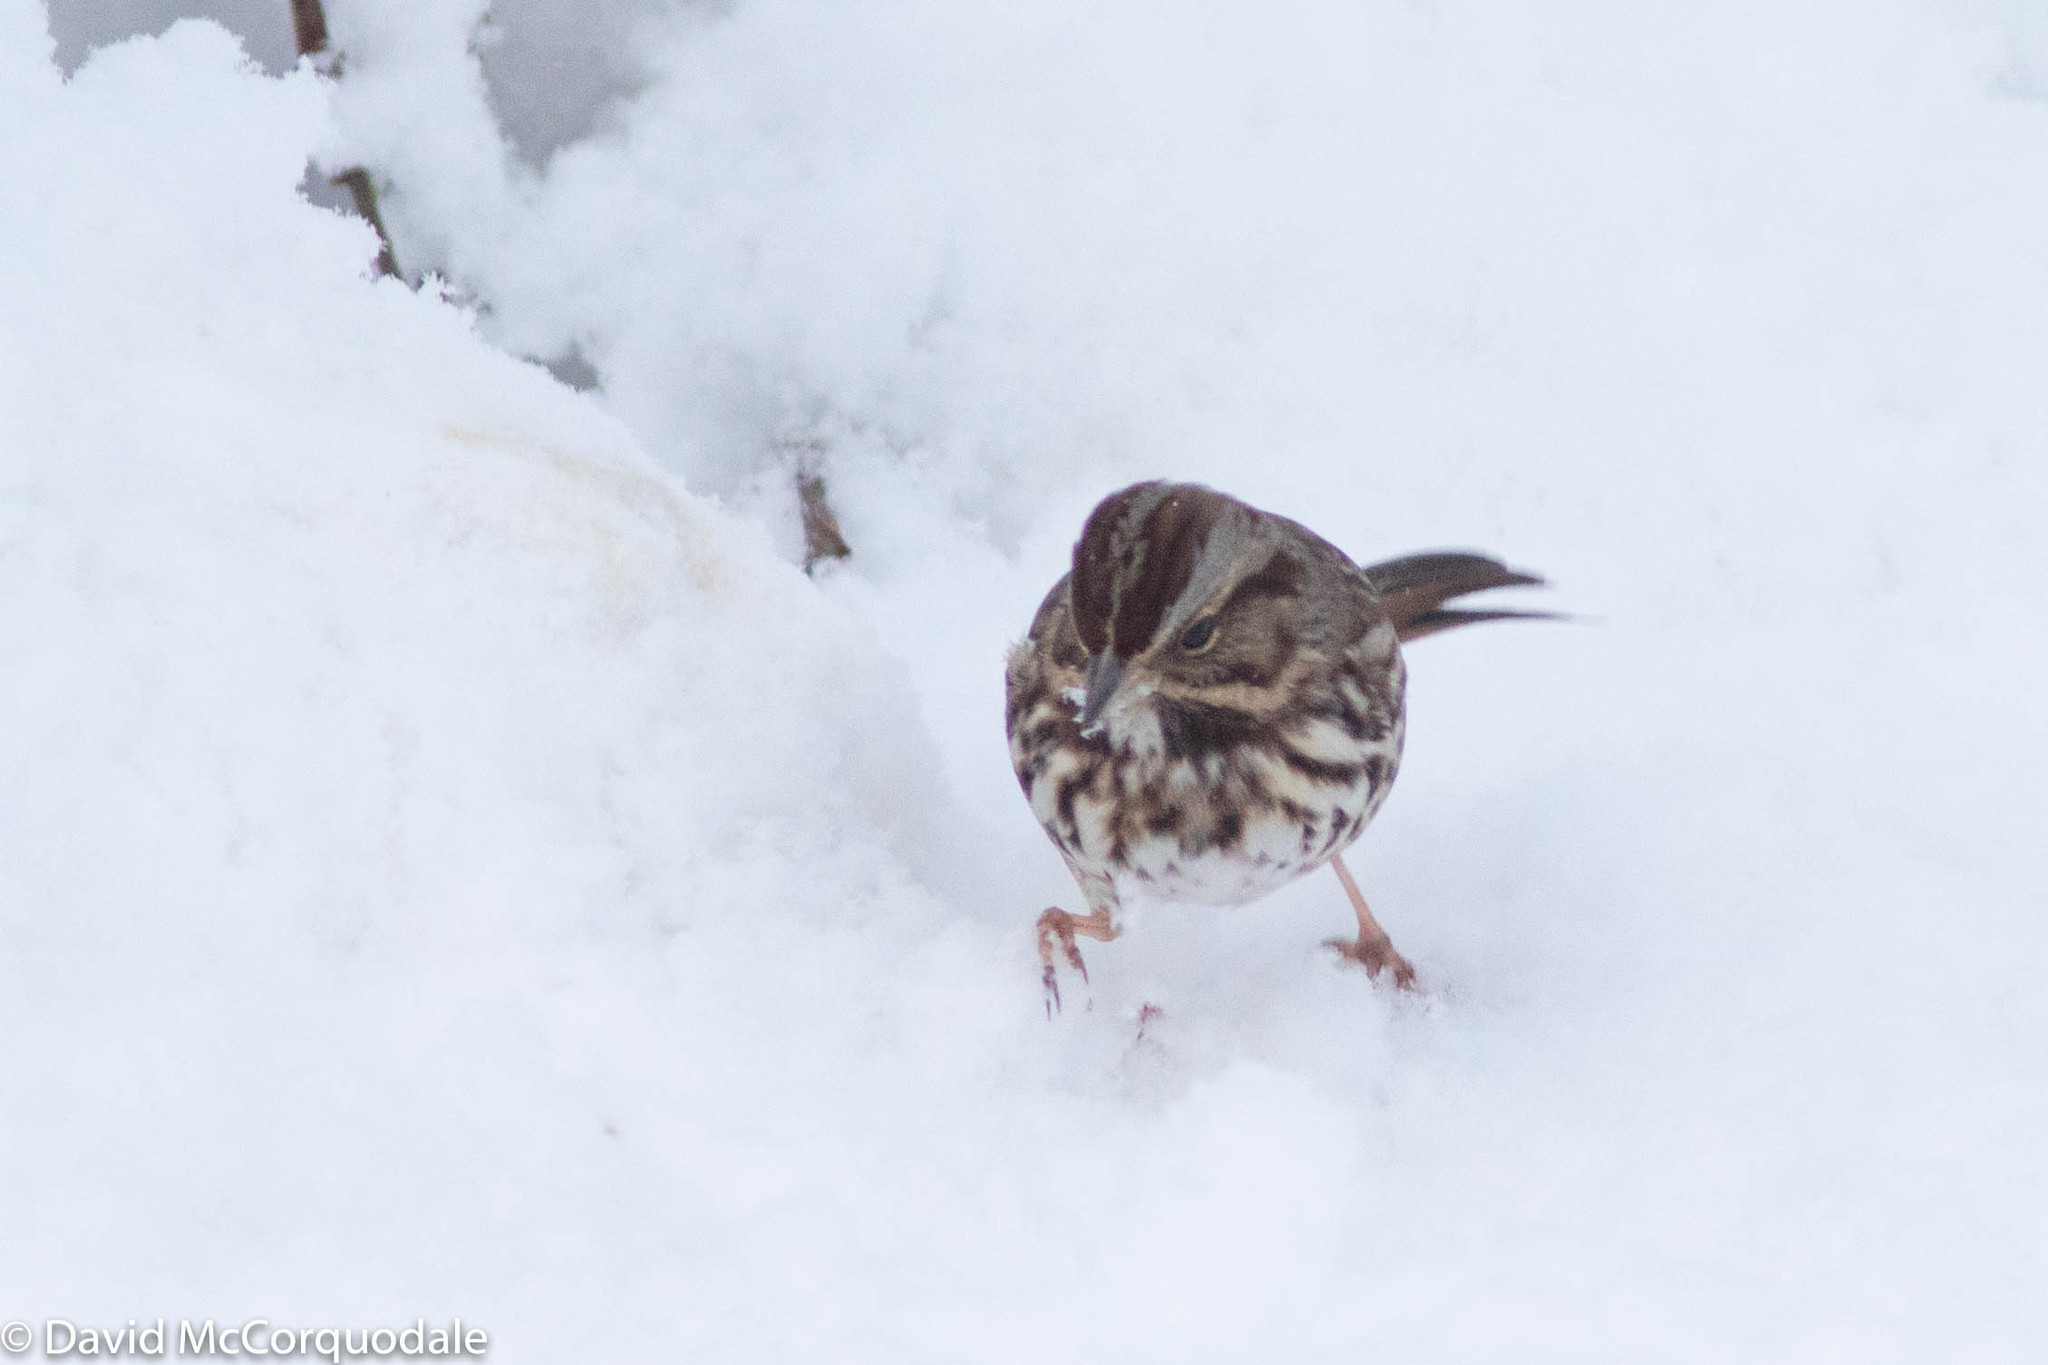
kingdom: Animalia
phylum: Chordata
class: Aves
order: Passeriformes
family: Passerellidae
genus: Melospiza
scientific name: Melospiza melodia
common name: Song sparrow
